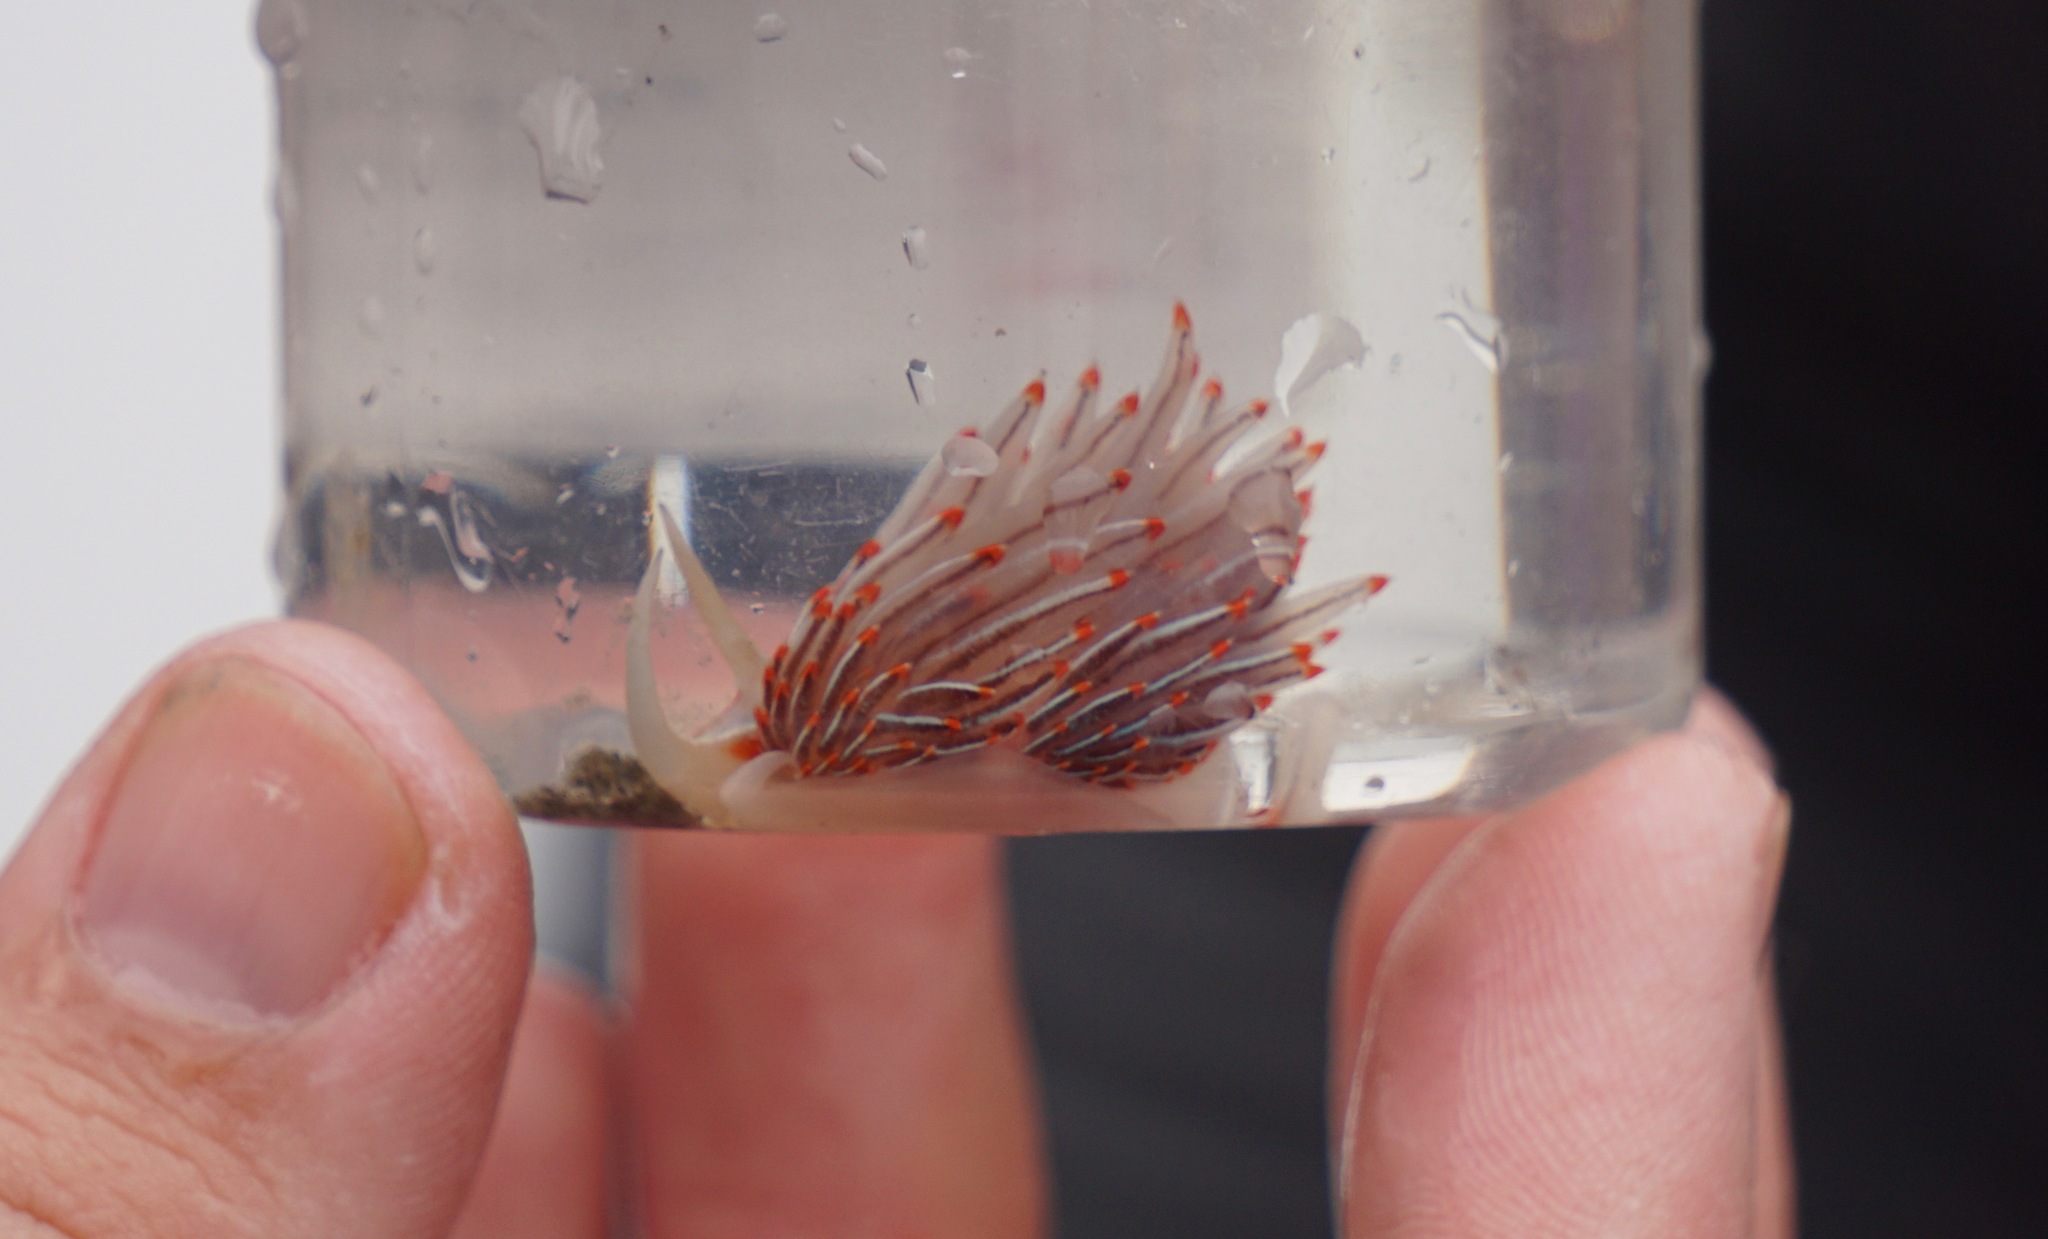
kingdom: Animalia
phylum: Mollusca
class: Gastropoda
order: Nudibranchia
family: Myrrhinidae
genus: Hermissenda
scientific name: Hermissenda crassicornis
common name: Hermissenda
